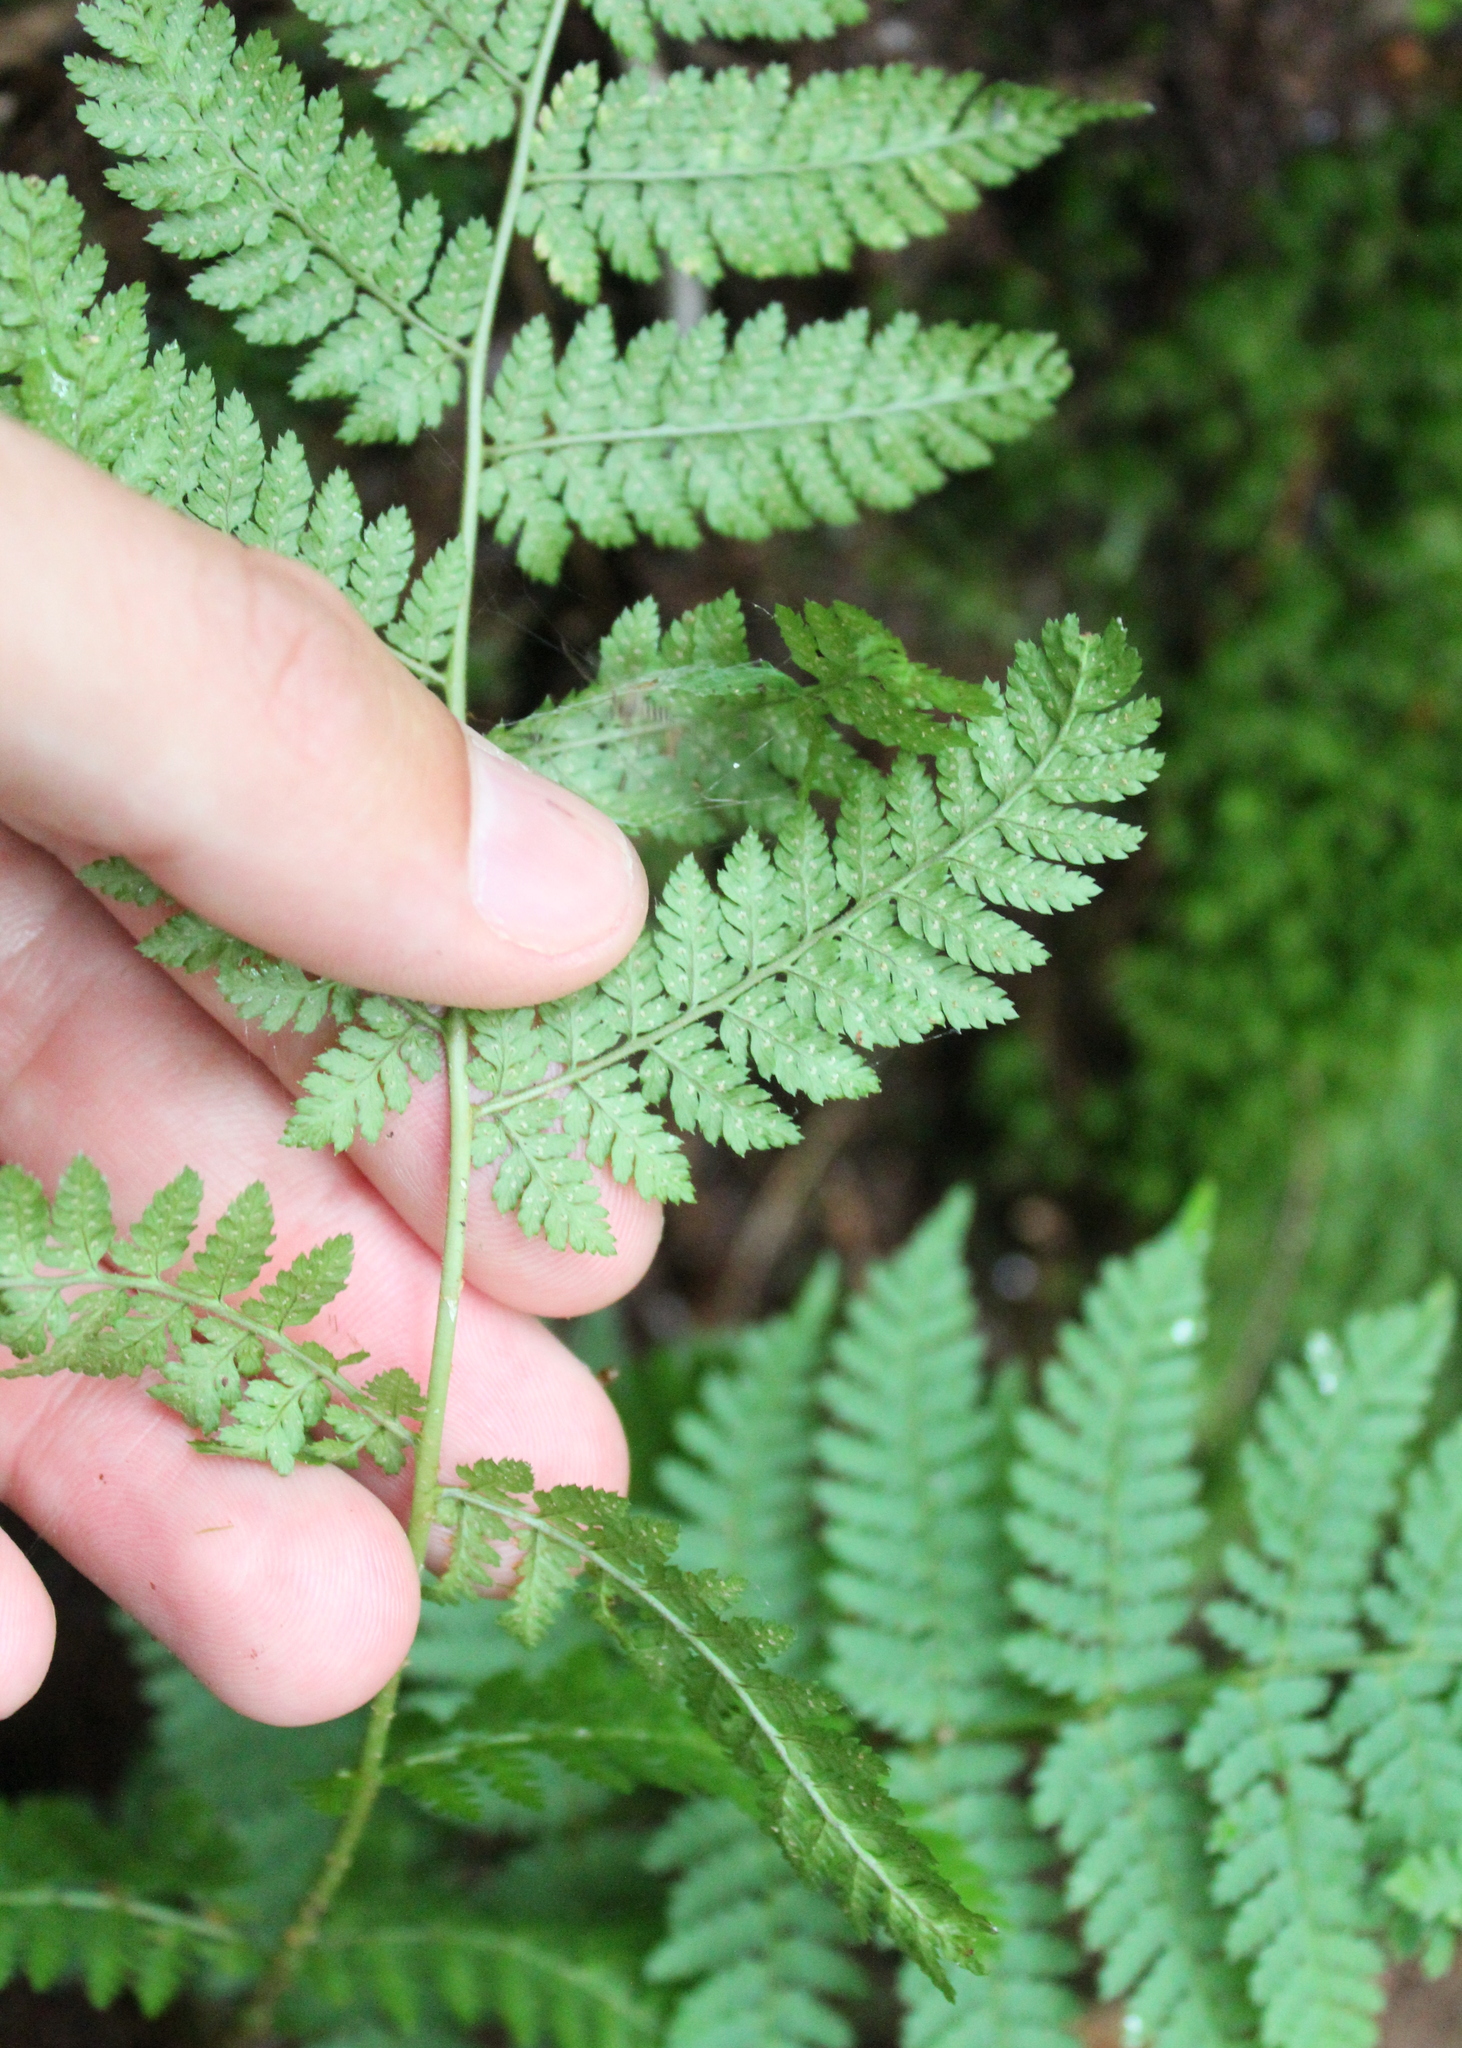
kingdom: Plantae
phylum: Tracheophyta
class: Polypodiopsida
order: Polypodiales
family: Dryopteridaceae
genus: Dryopteris
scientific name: Dryopteris intermedia
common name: Evergreen wood fern
